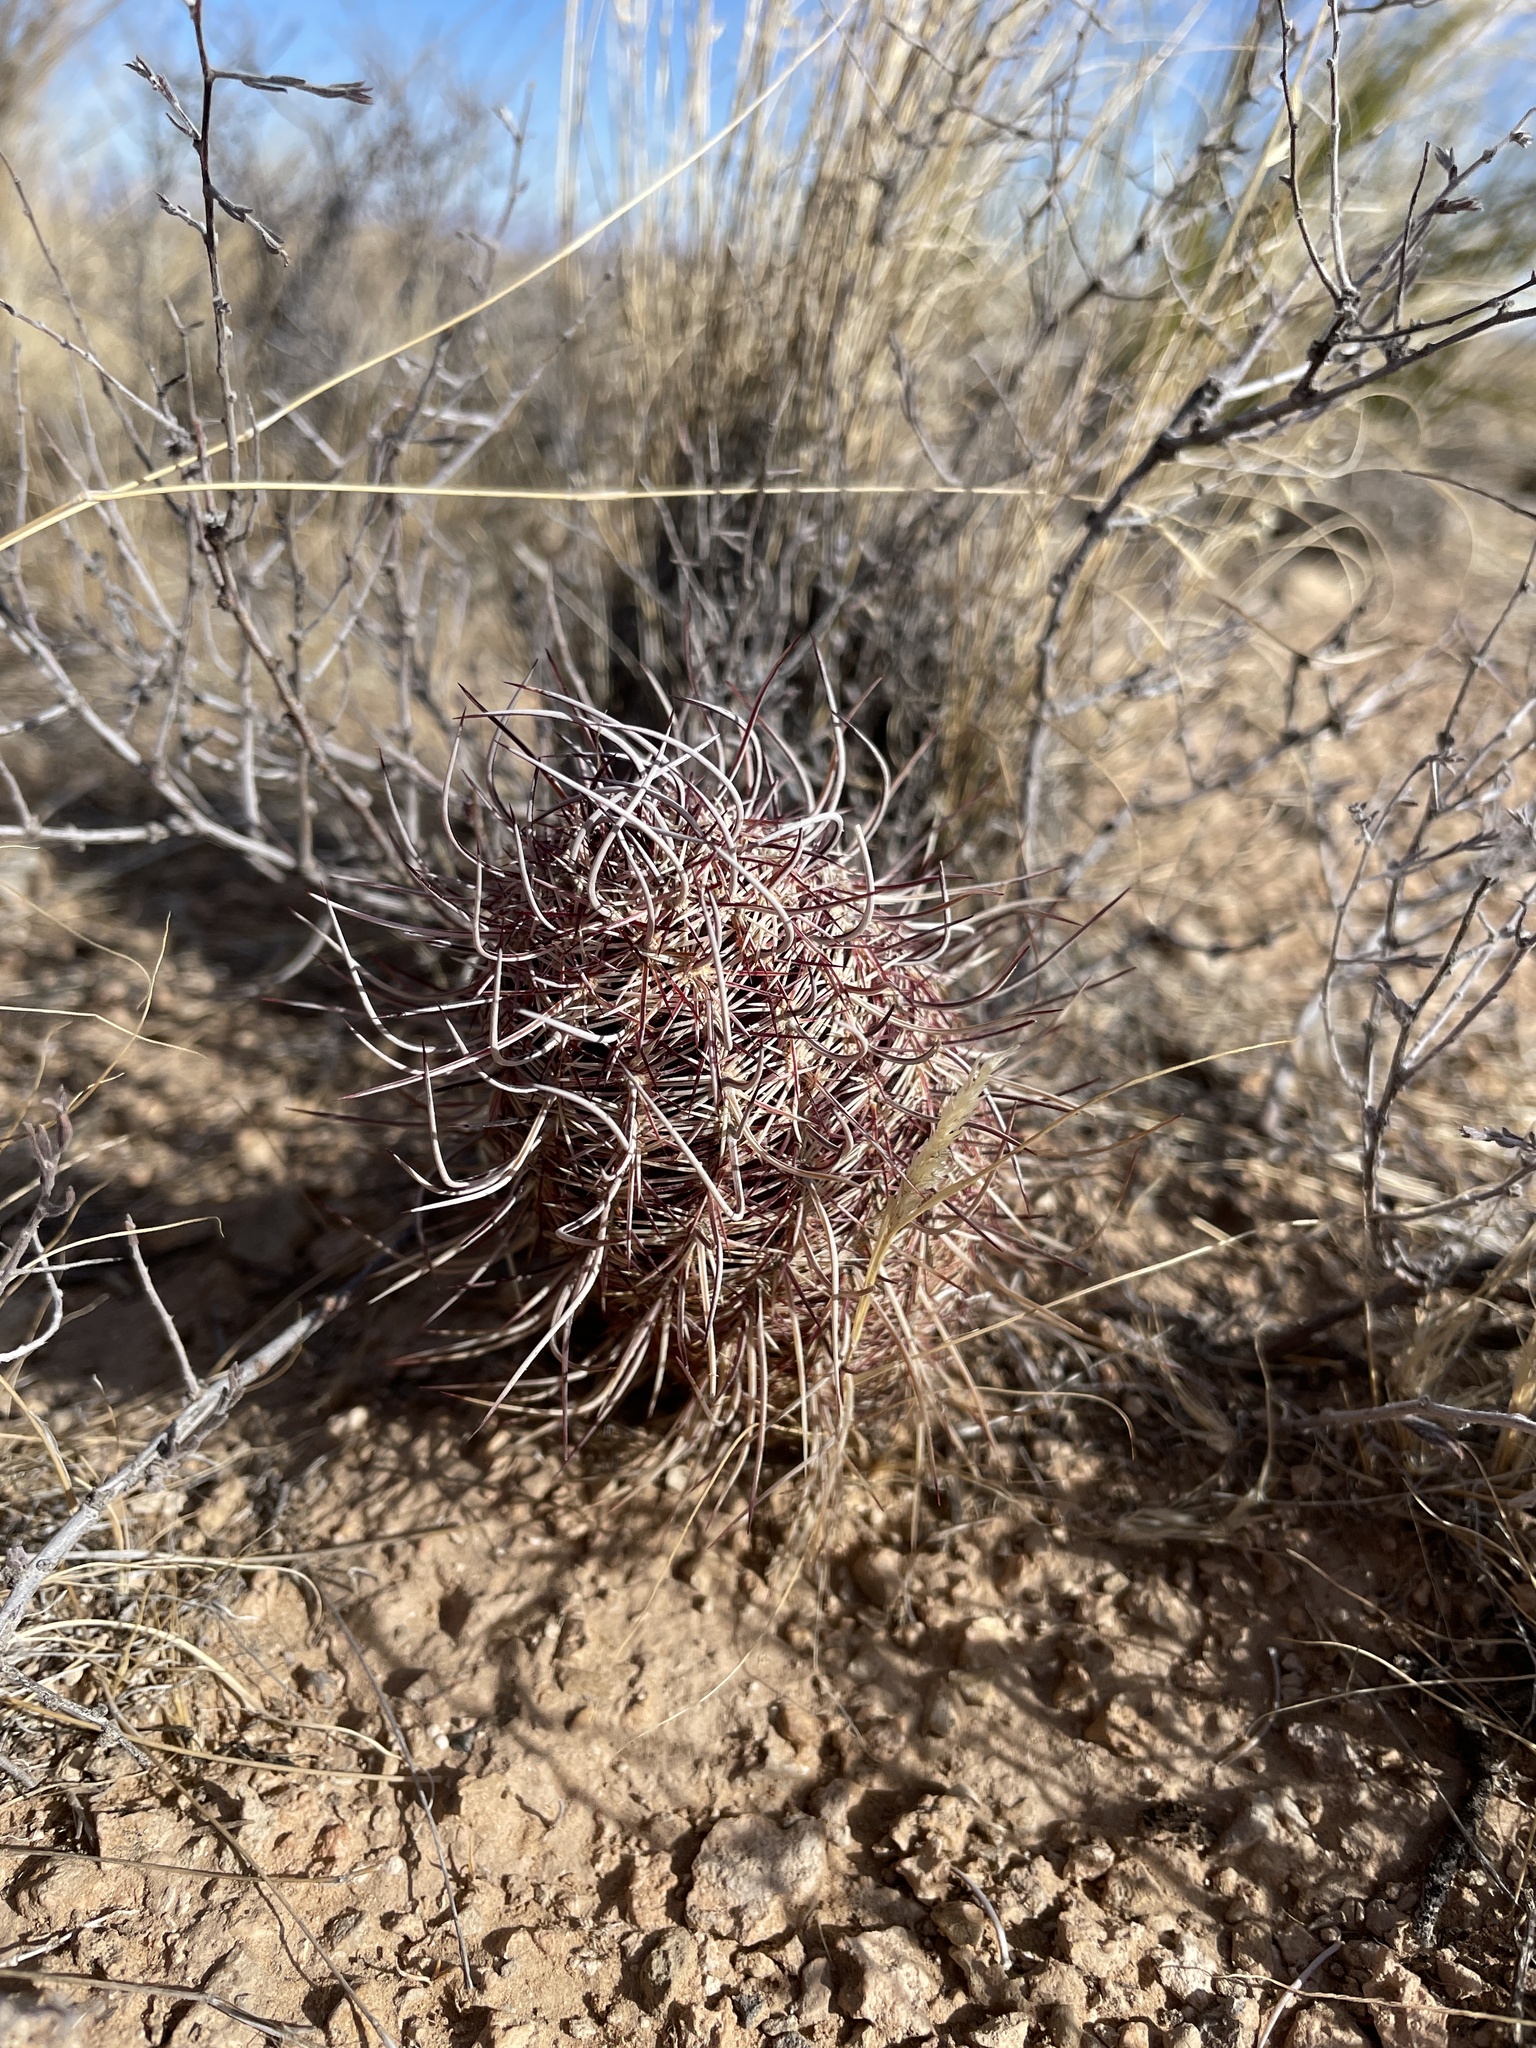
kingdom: Plantae
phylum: Tracheophyta
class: Magnoliopsida
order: Caryophyllales
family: Cactaceae
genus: Echinocereus
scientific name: Echinocereus viridiflorus
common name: Nylon hedgehog cactus
